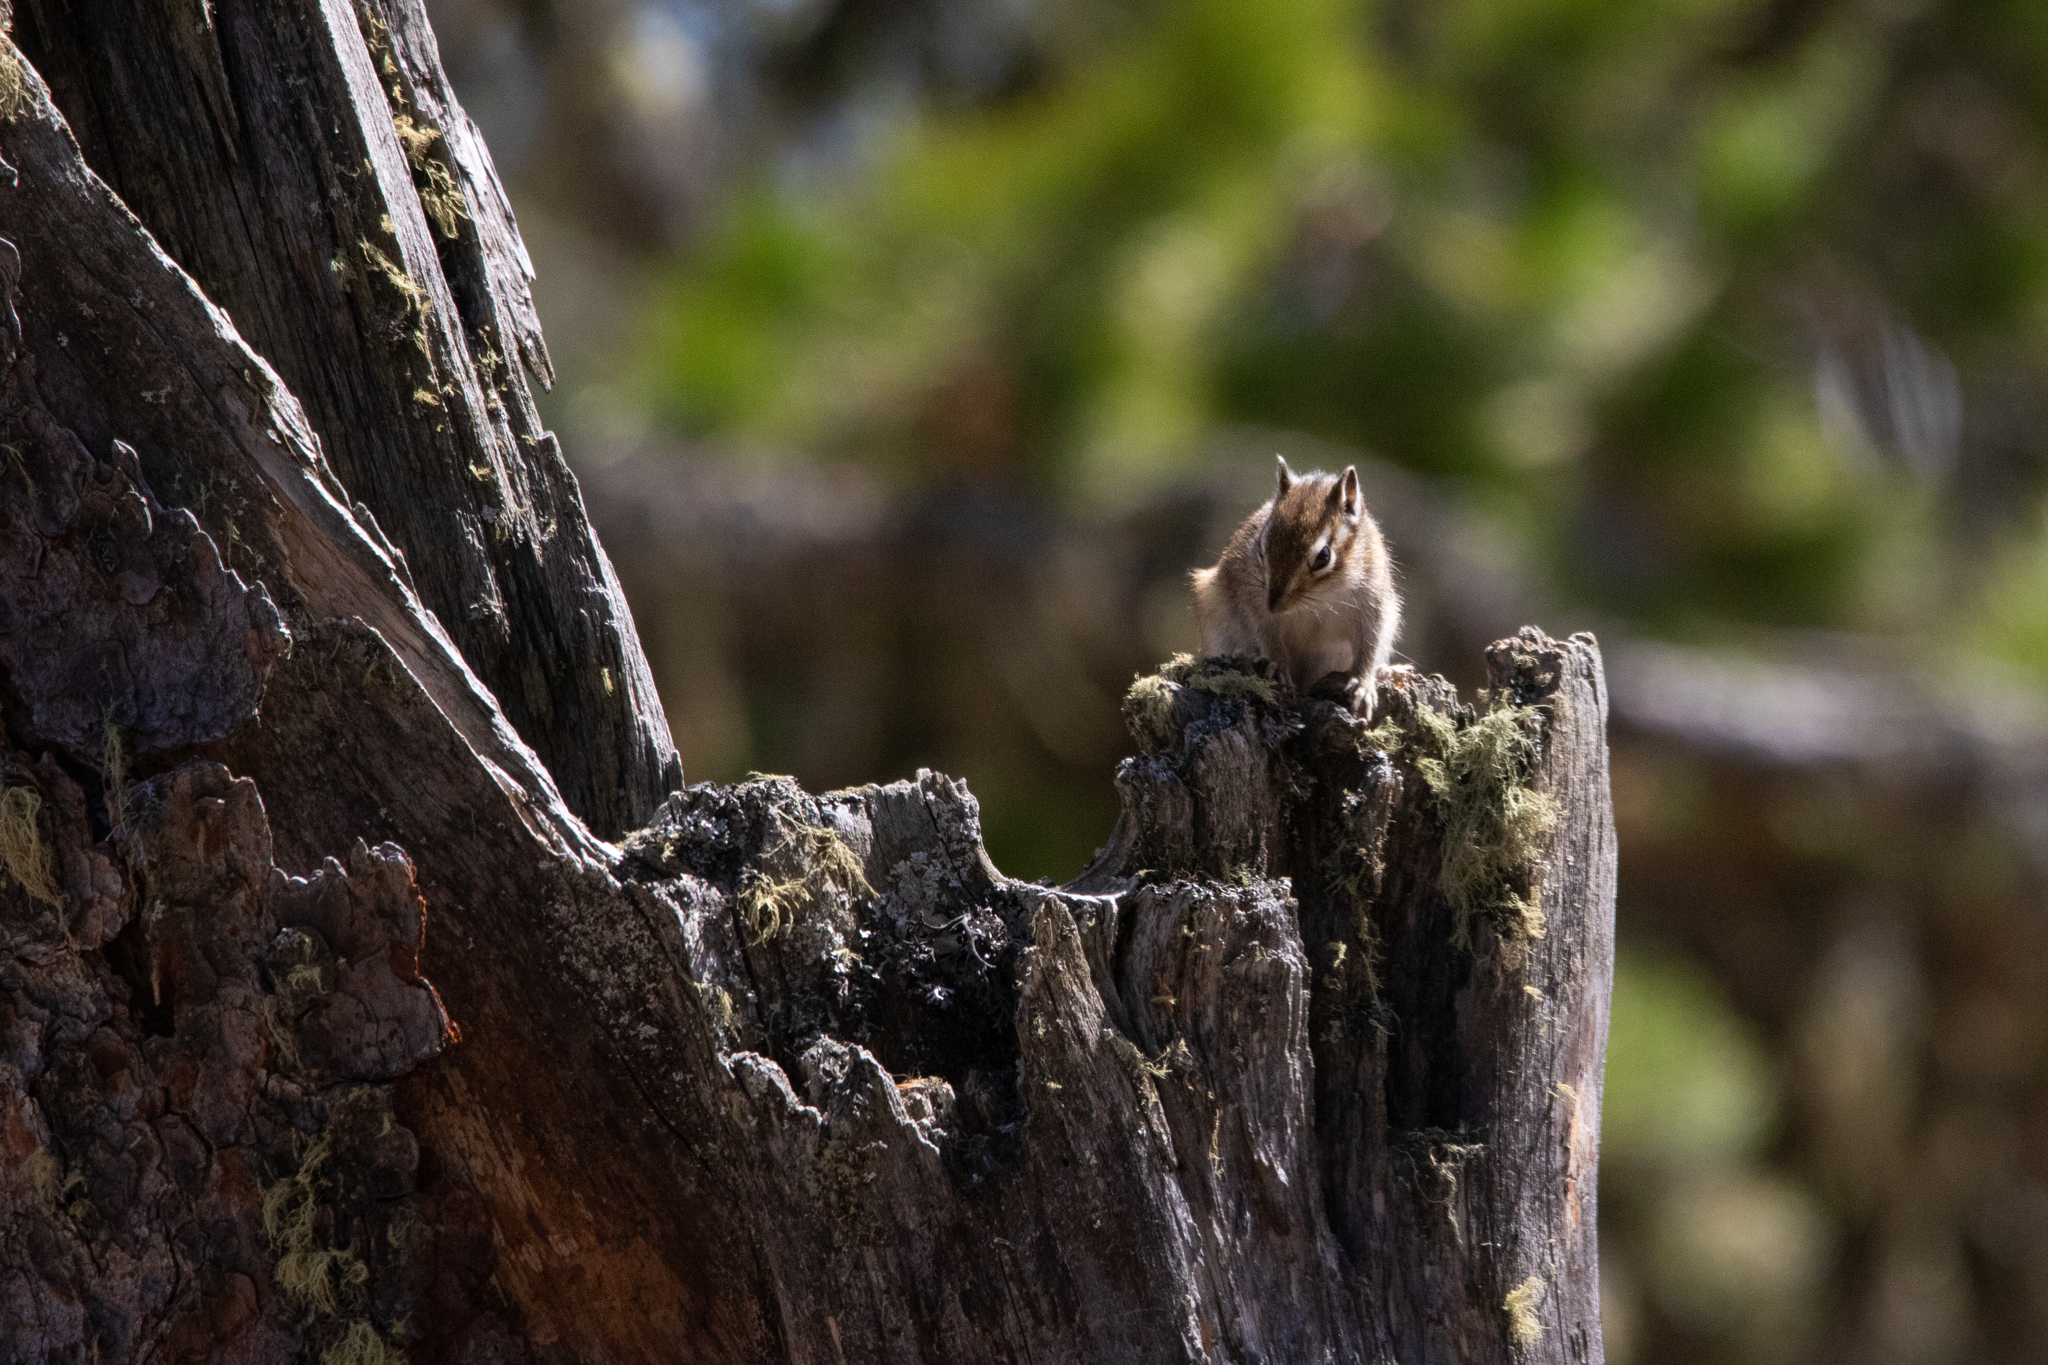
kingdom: Animalia
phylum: Chordata
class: Mammalia
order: Rodentia
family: Sciuridae
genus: Tamias
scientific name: Tamias sibiricus
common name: Siberian chipmunk
